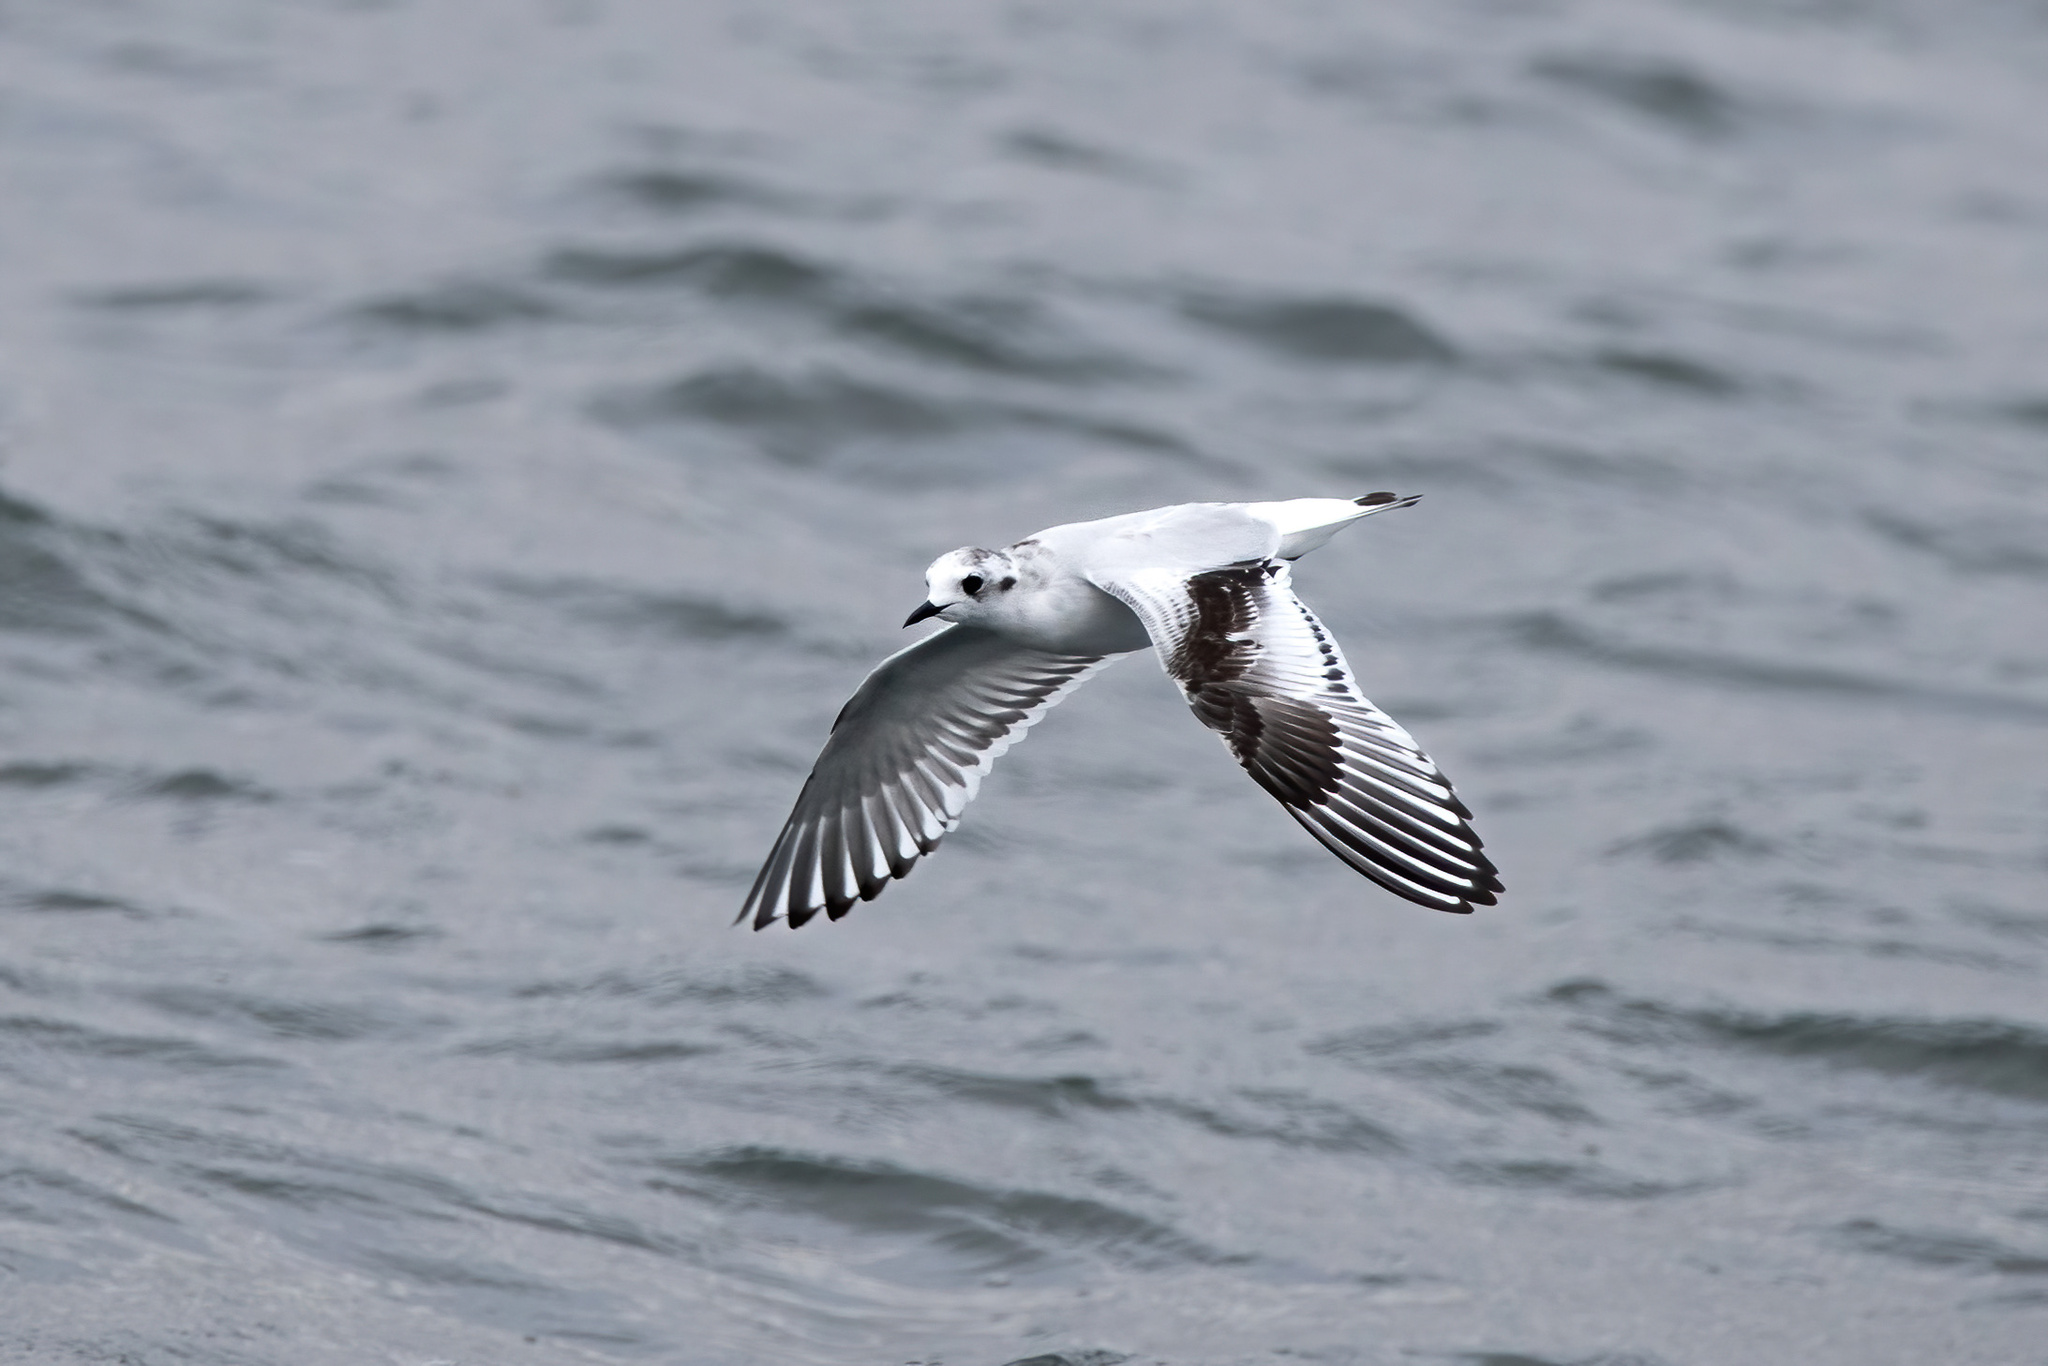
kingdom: Animalia
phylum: Chordata
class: Aves
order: Charadriiformes
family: Laridae
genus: Hydrocoloeus
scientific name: Hydrocoloeus minutus
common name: Little gull
